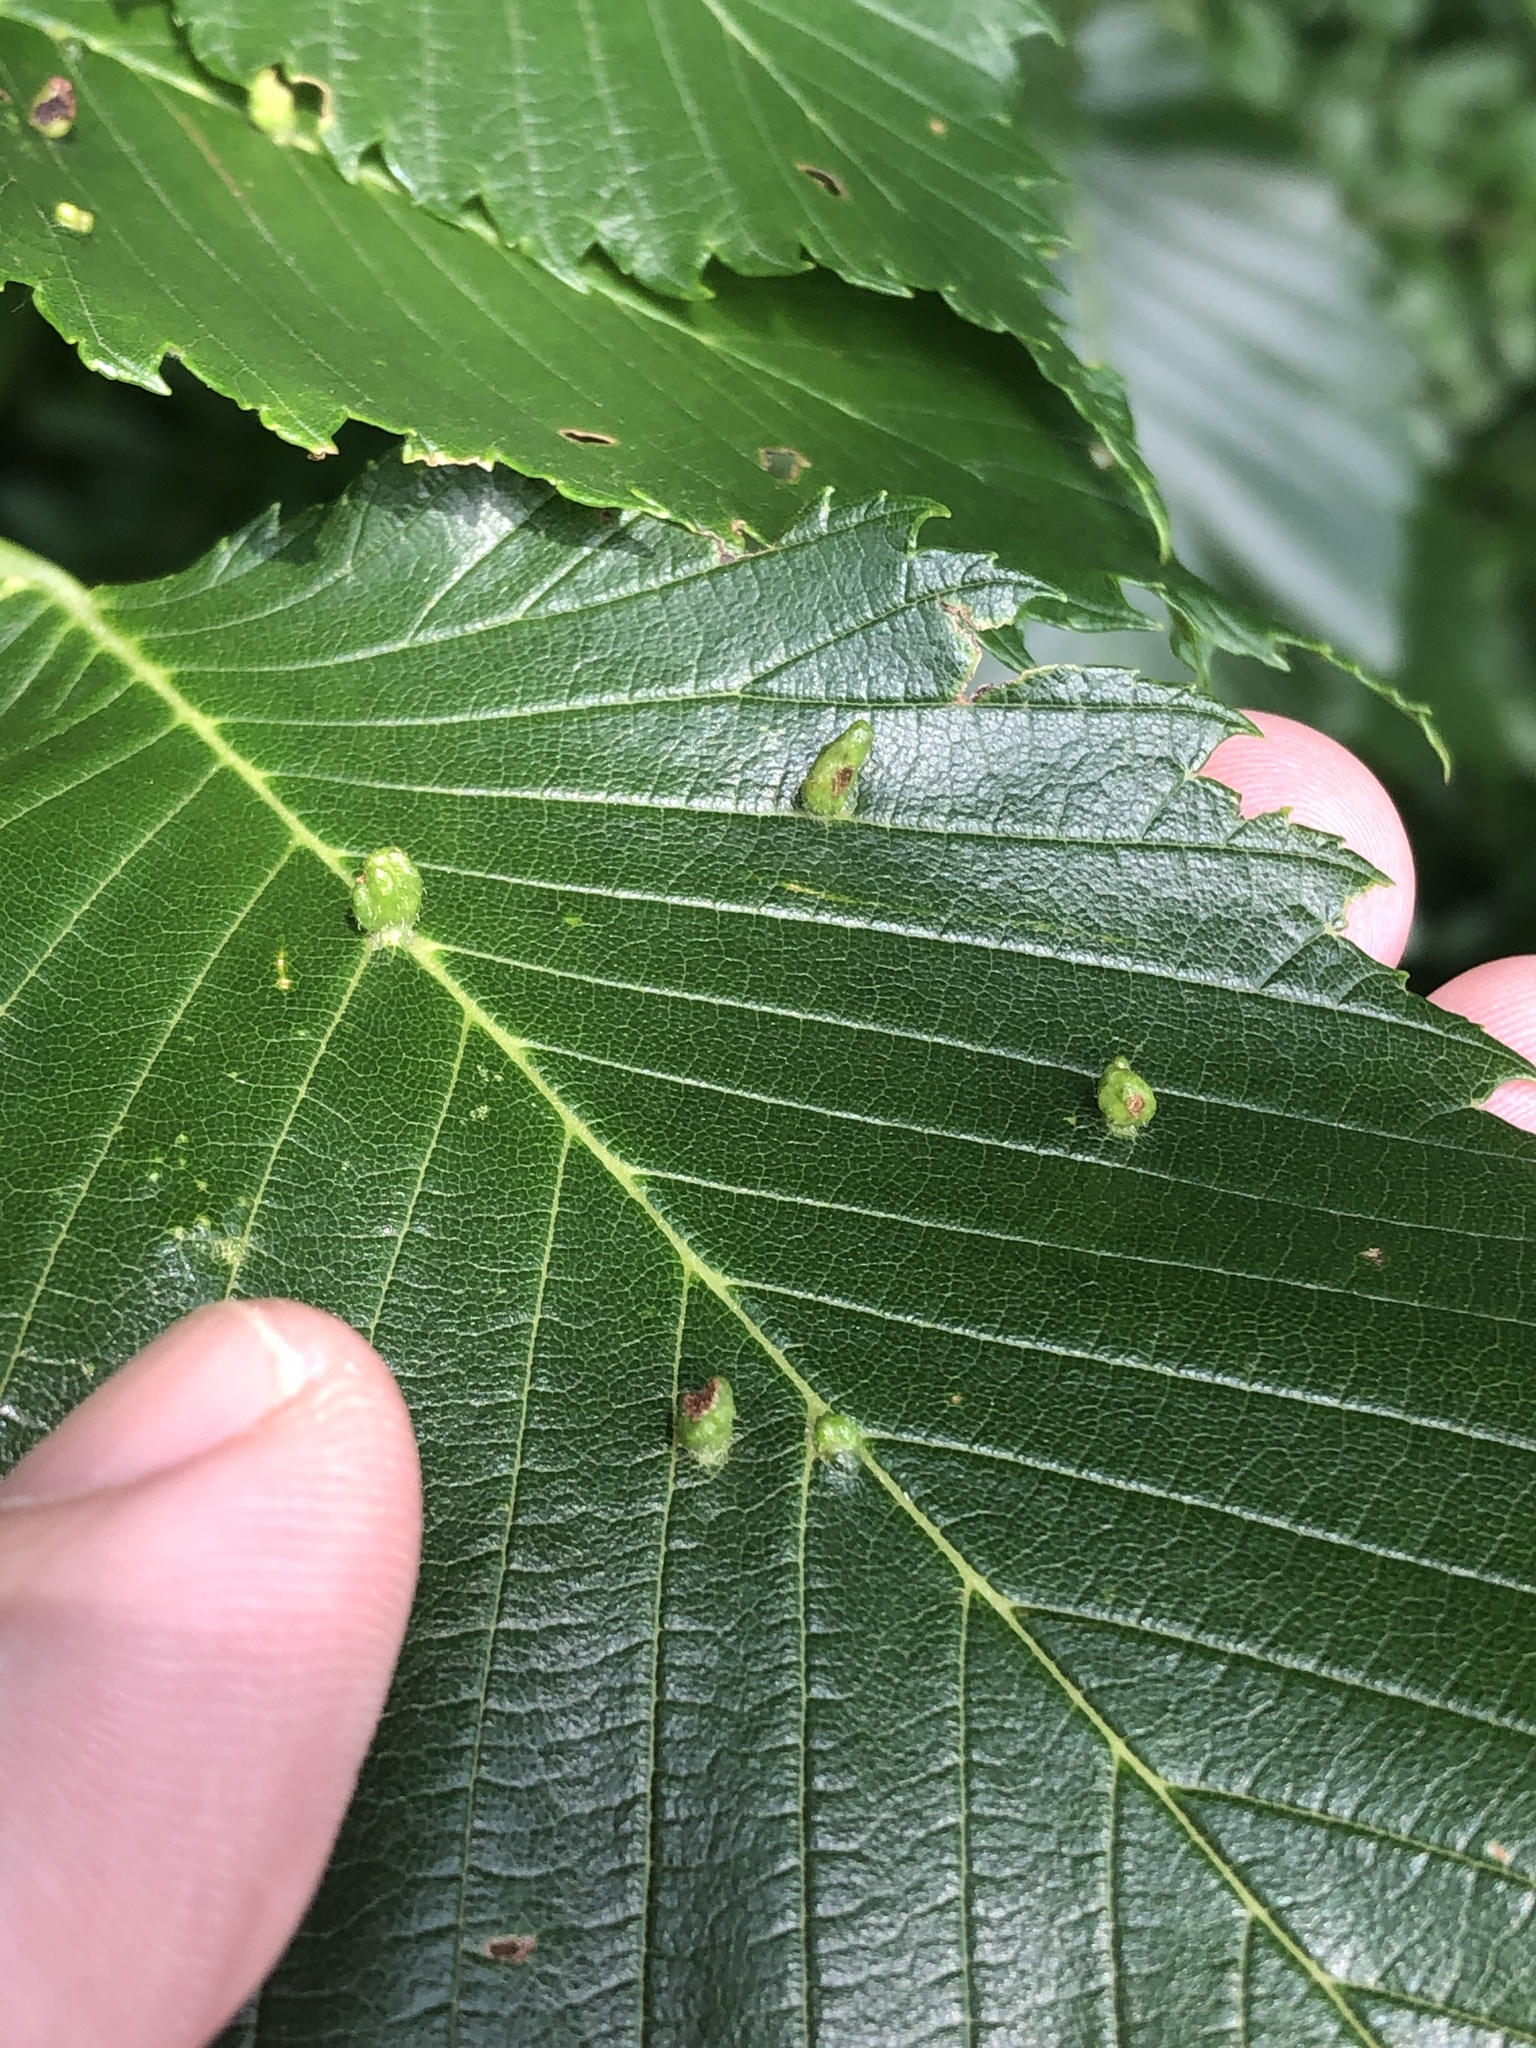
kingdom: Animalia
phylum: Arthropoda
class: Arachnida
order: Trombidiformes
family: Eriophyidae
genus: Aceria
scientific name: Aceria
